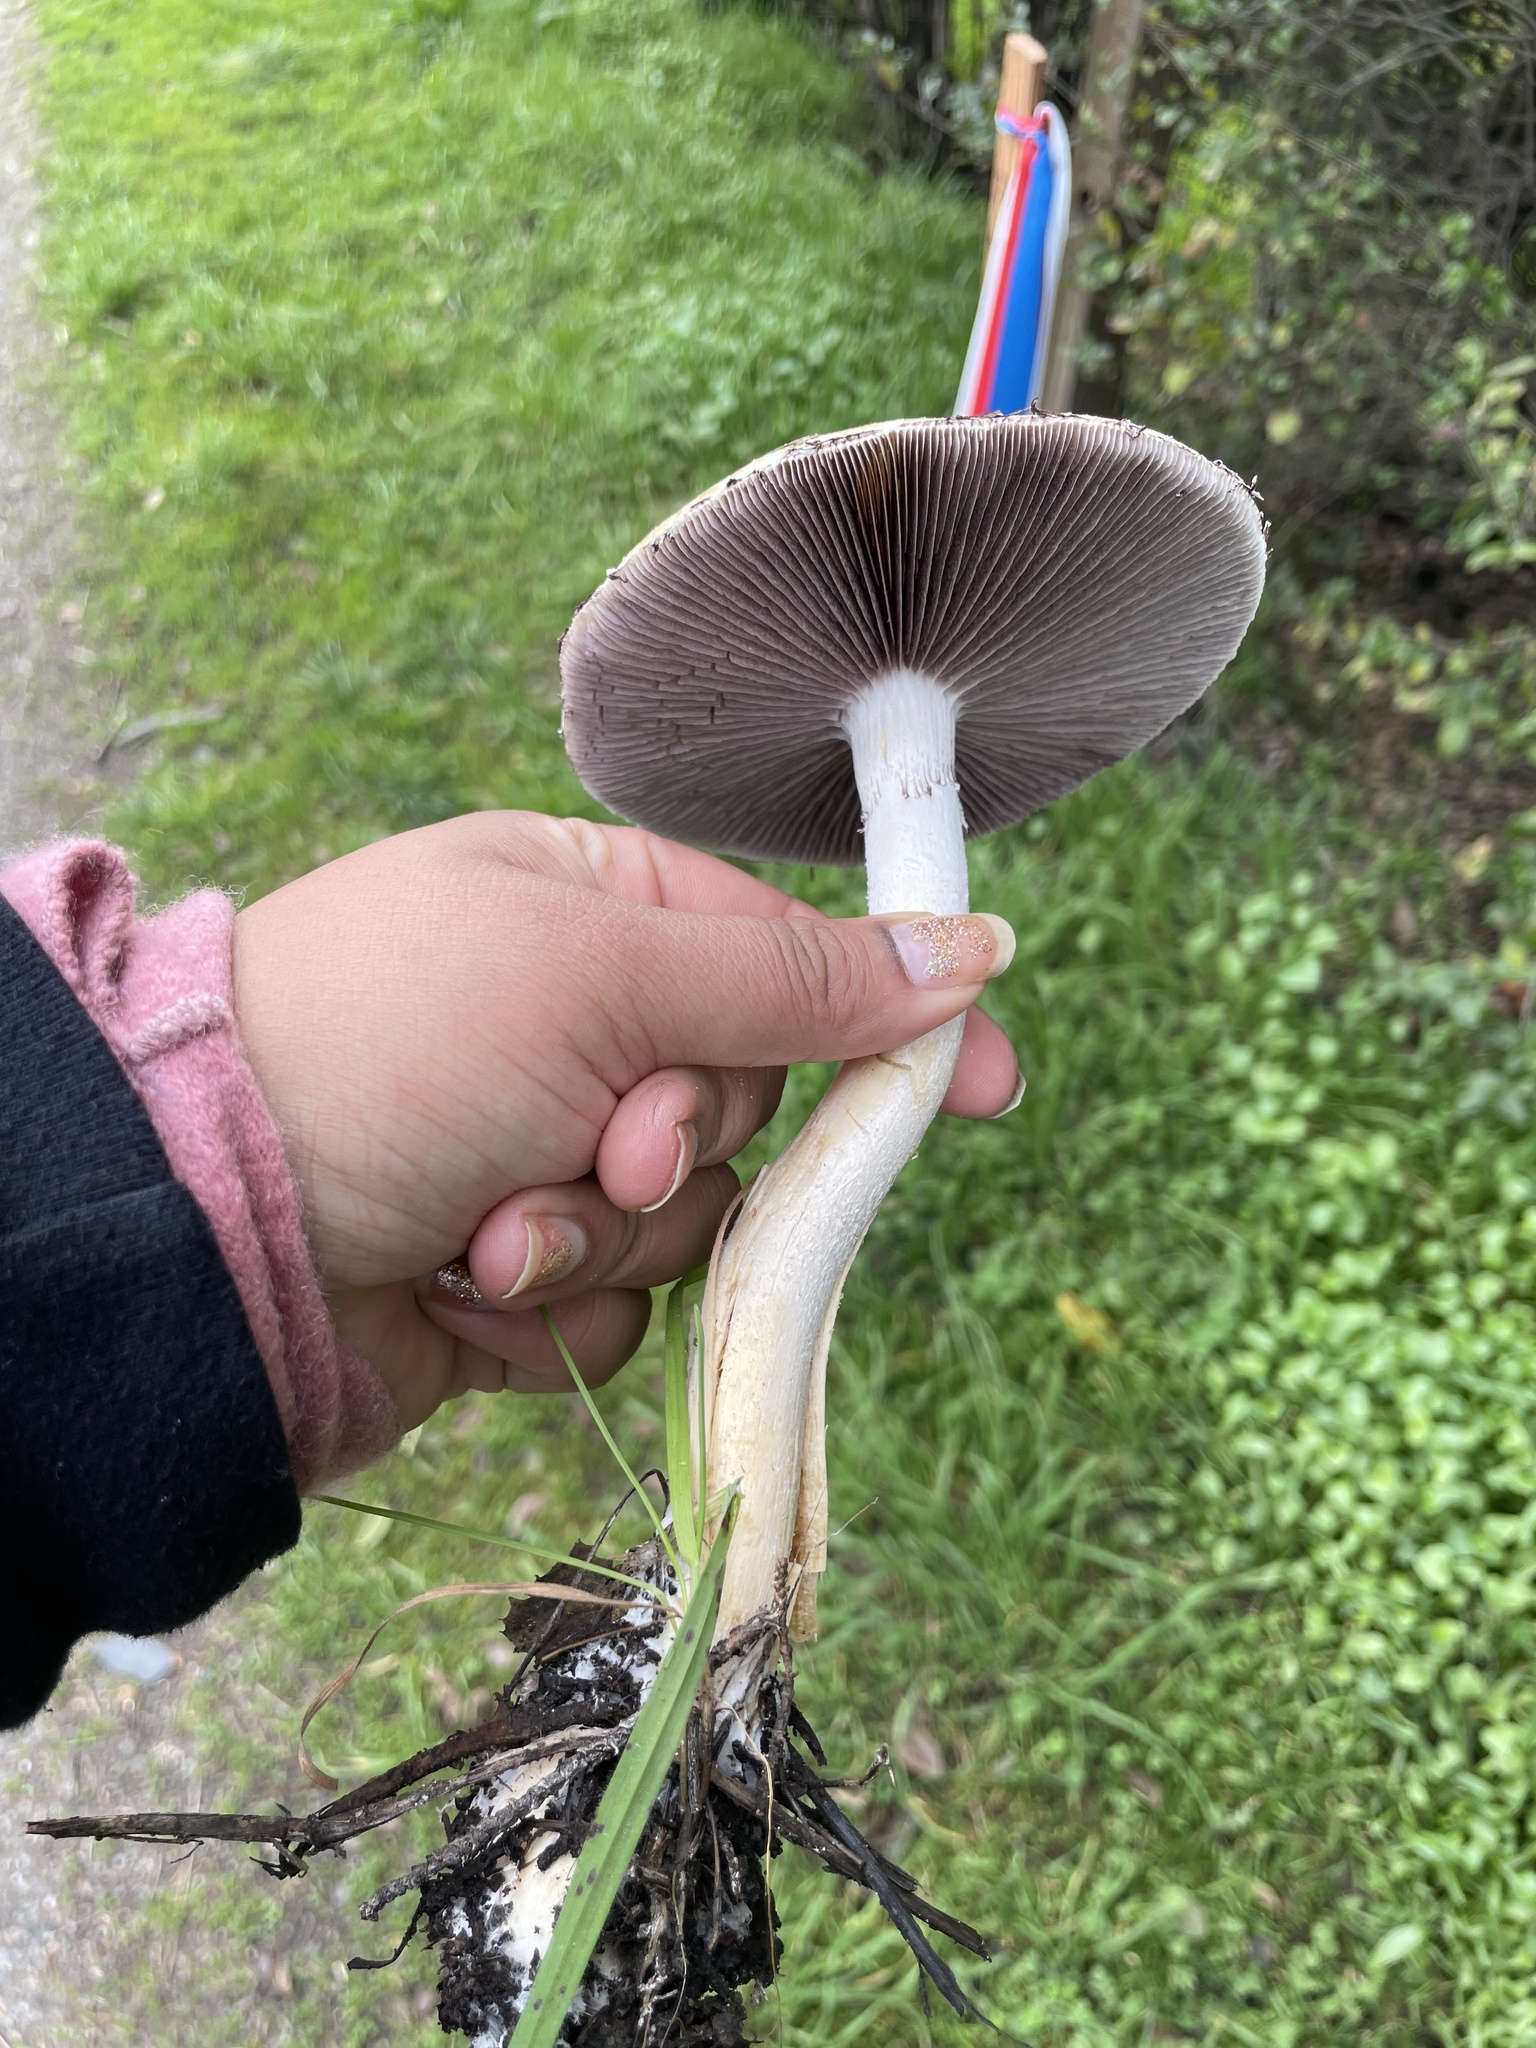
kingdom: Fungi
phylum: Basidiomycota
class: Agaricomycetes
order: Agaricales
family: Strophariaceae
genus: Stropharia
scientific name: Stropharia ambigua
